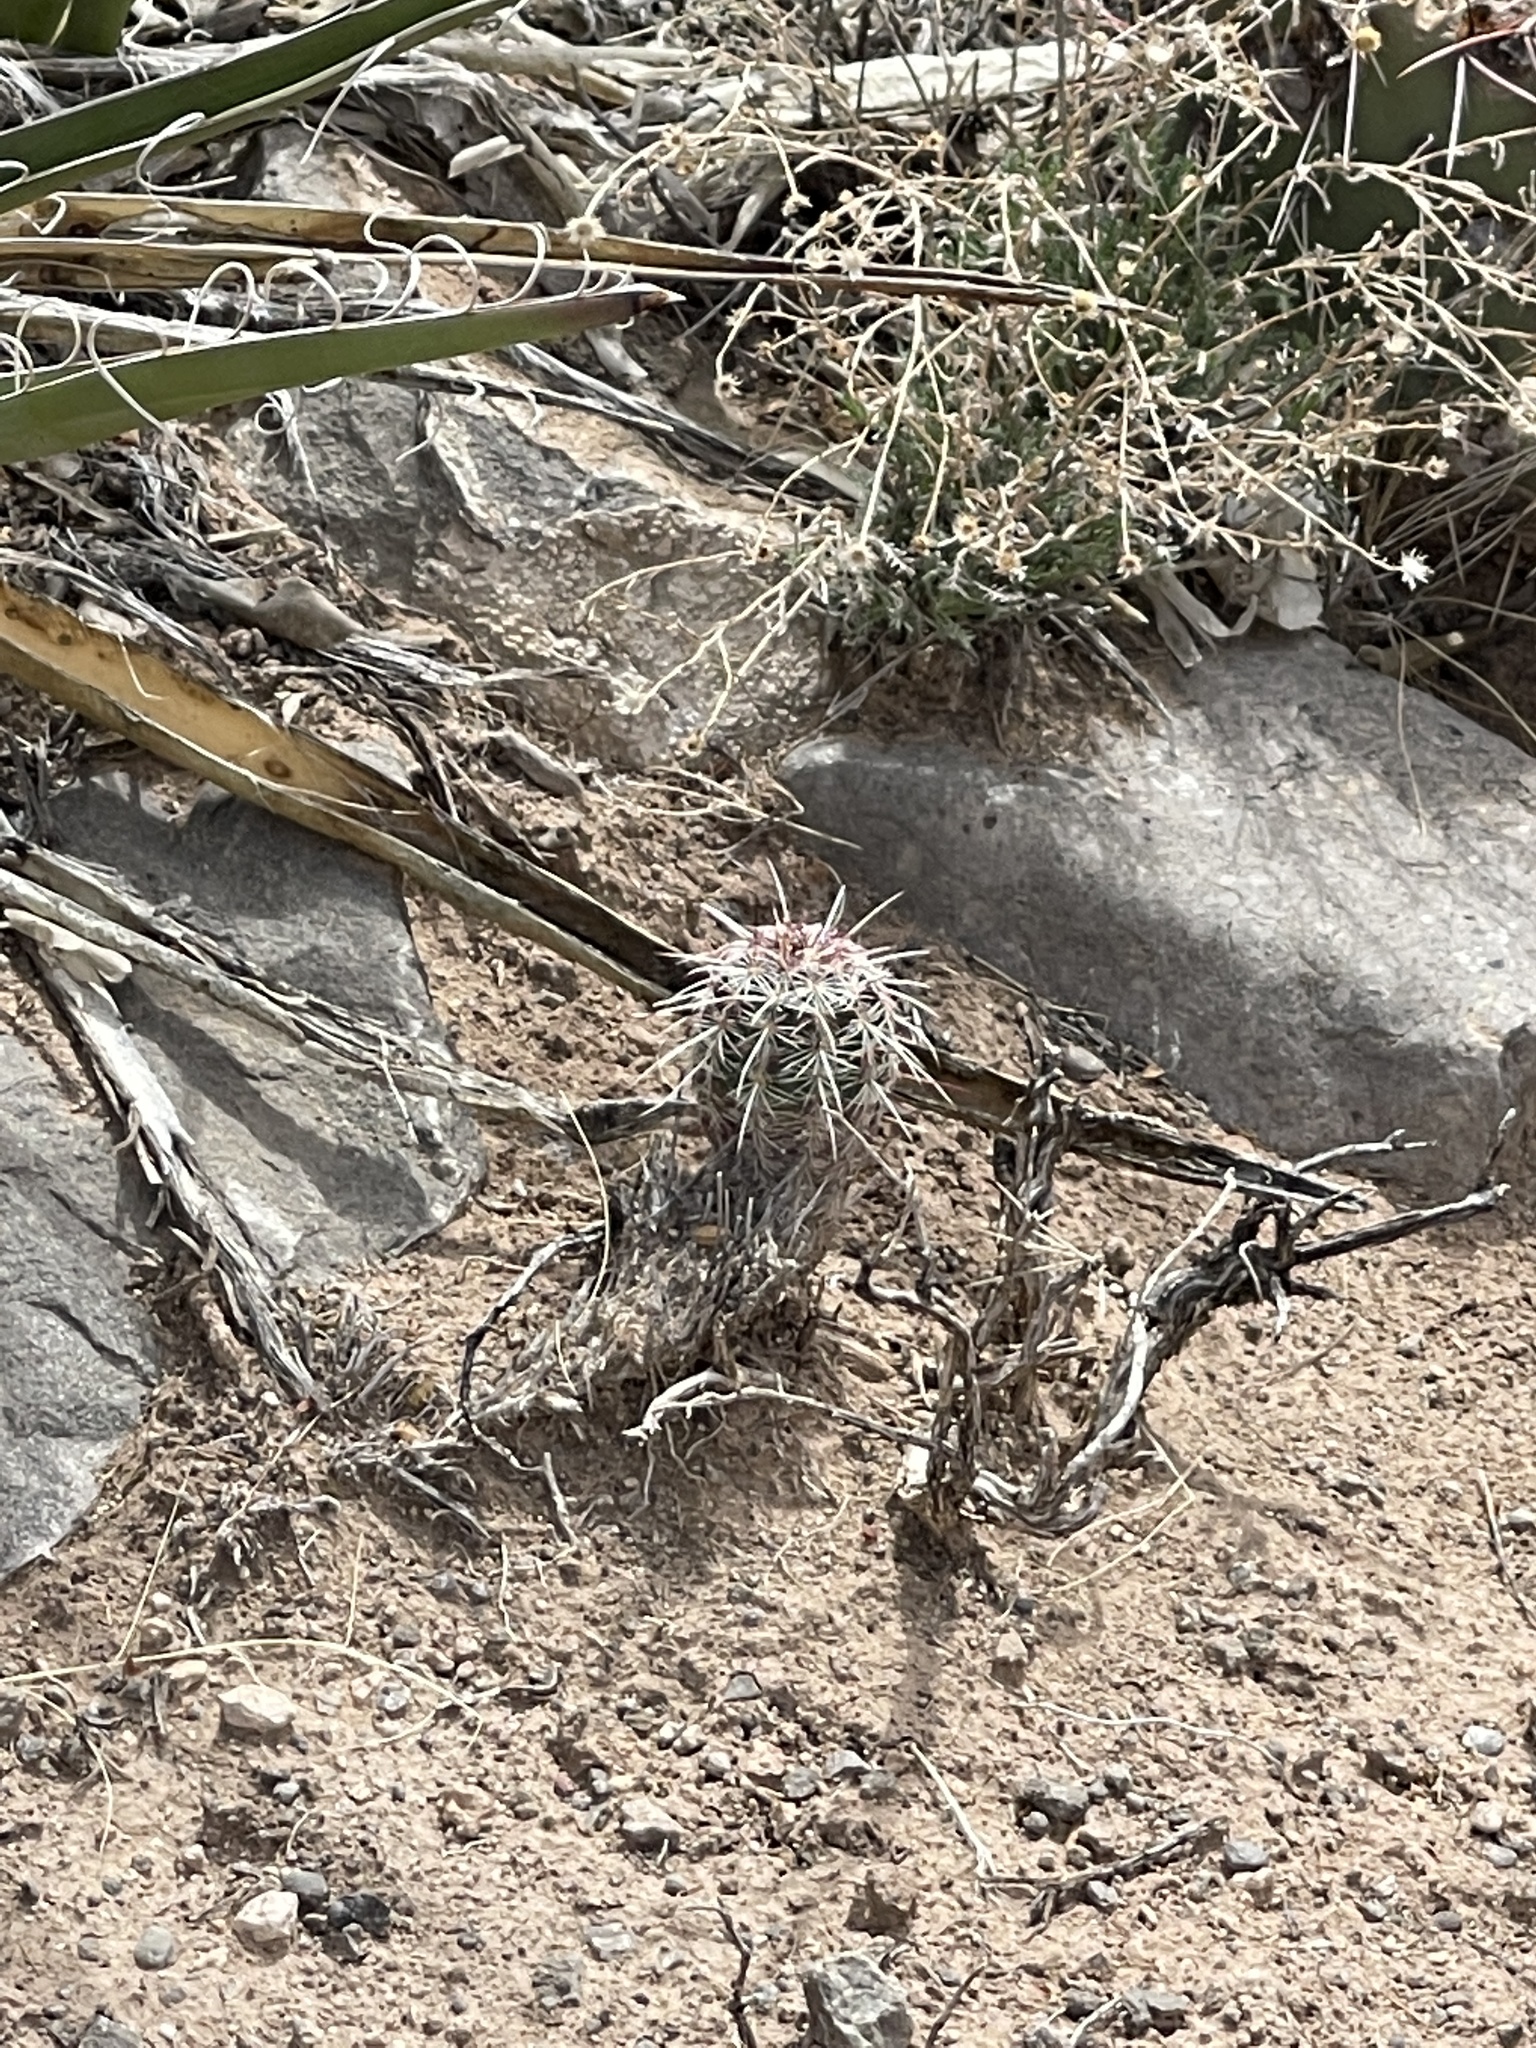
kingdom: Plantae
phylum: Tracheophyta
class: Magnoliopsida
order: Caryophyllales
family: Cactaceae
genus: Echinocereus
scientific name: Echinocereus viridiflorus
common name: Nylon hedgehog cactus
